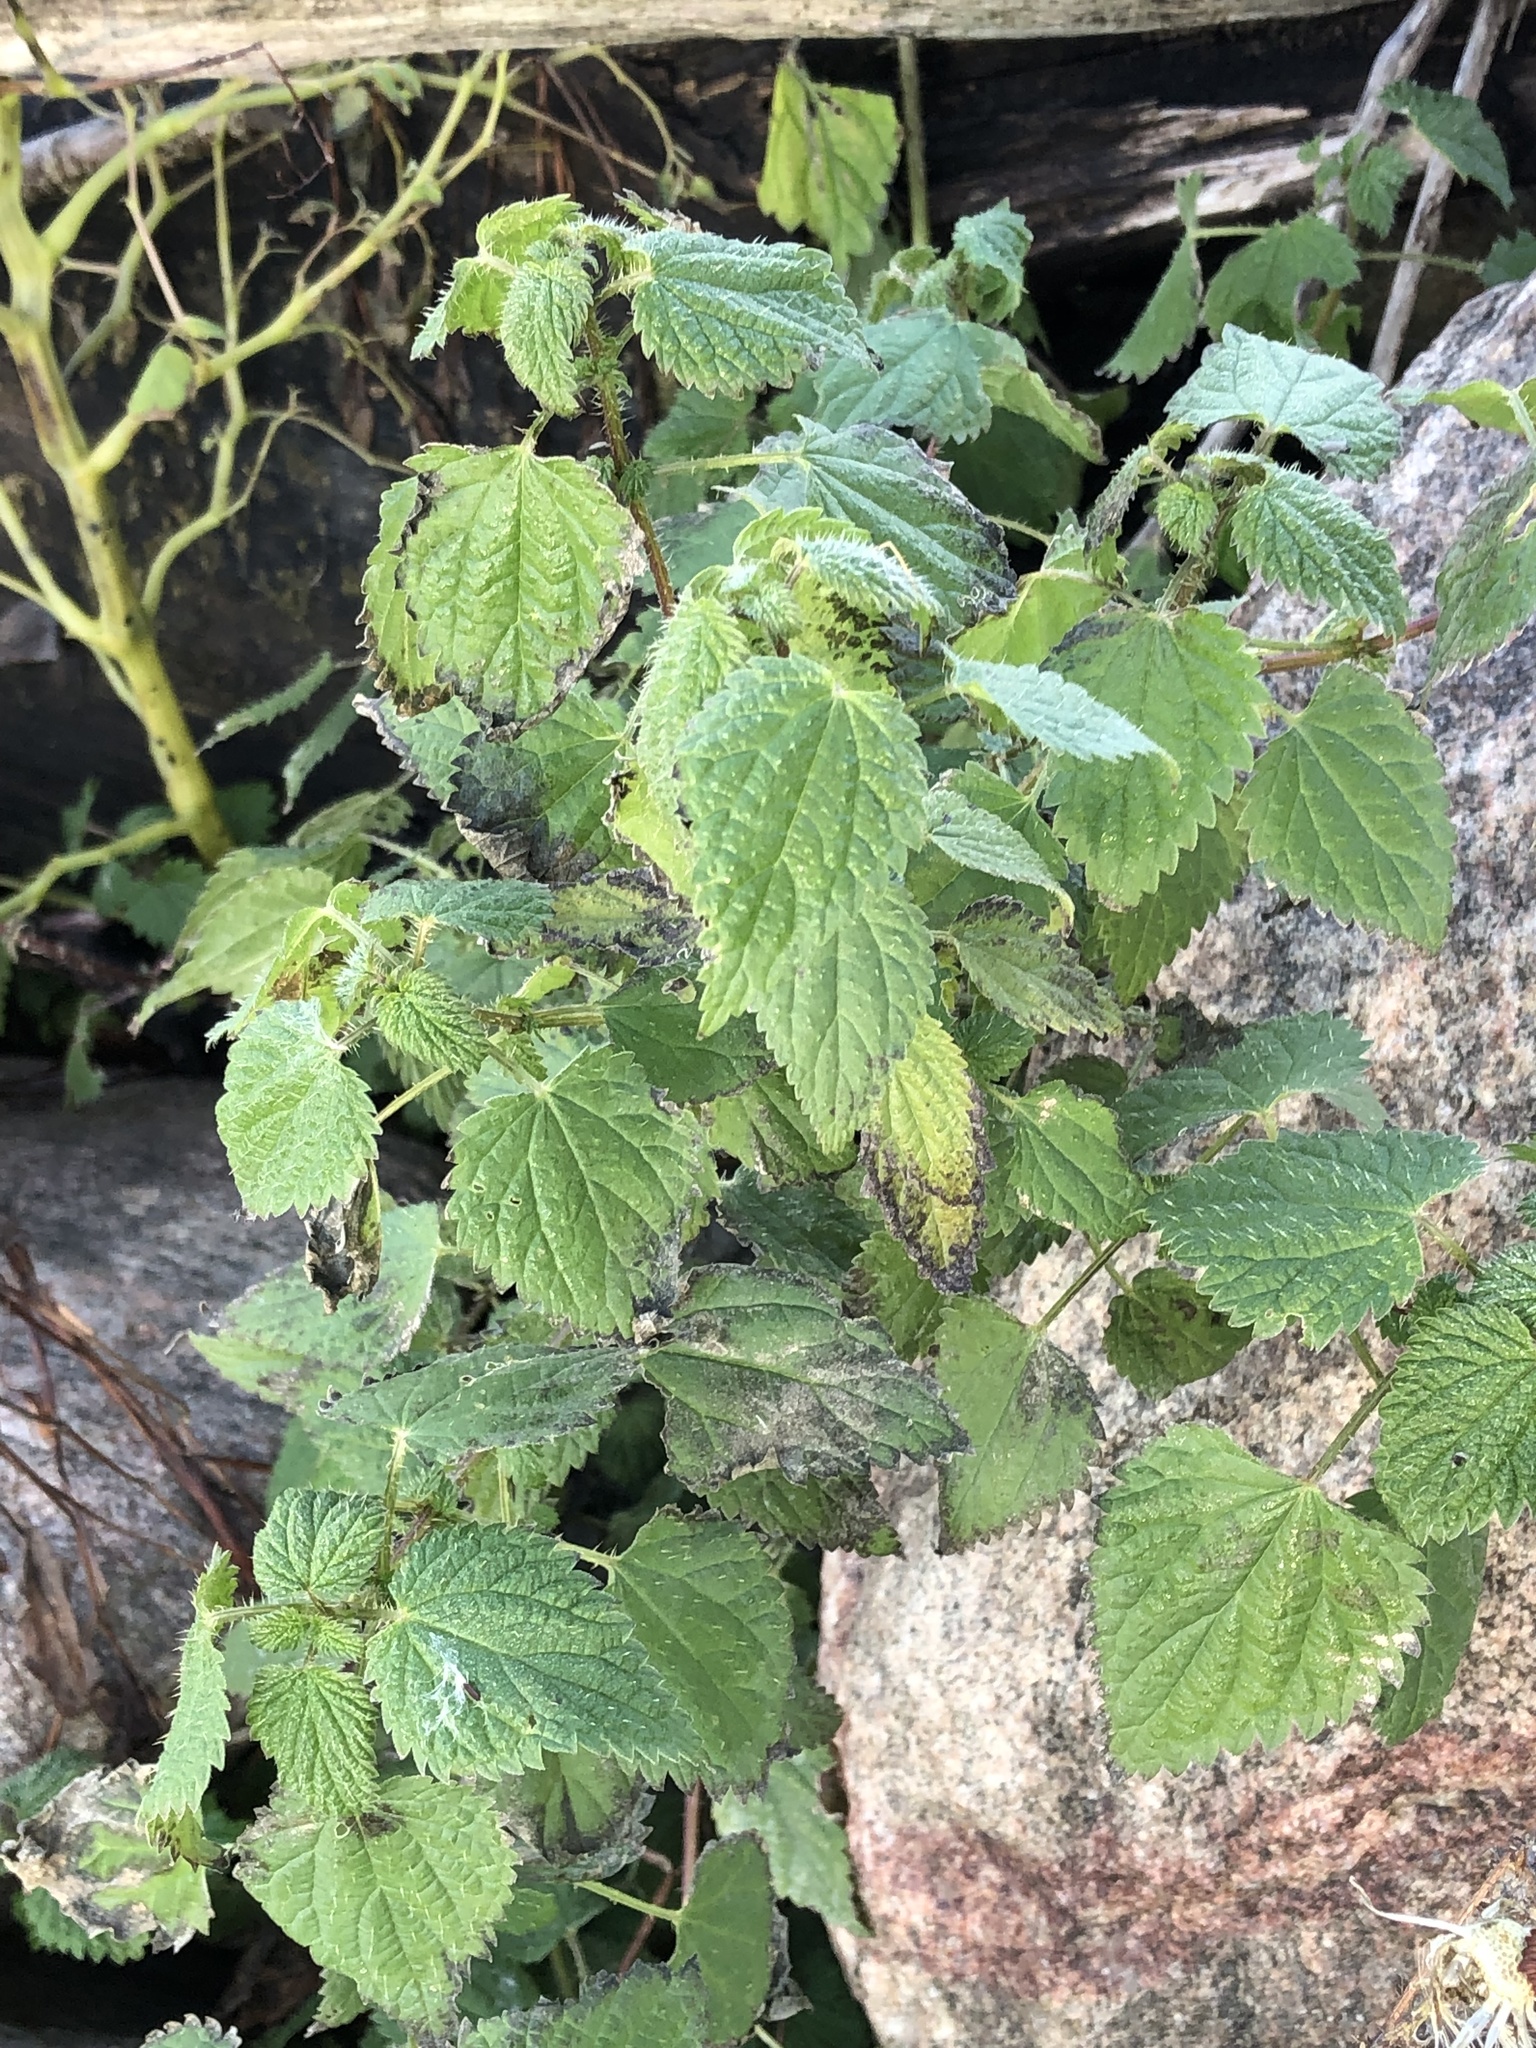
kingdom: Plantae
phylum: Tracheophyta
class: Magnoliopsida
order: Rosales
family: Urticaceae
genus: Urtica
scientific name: Urtica dioica
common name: Common nettle
